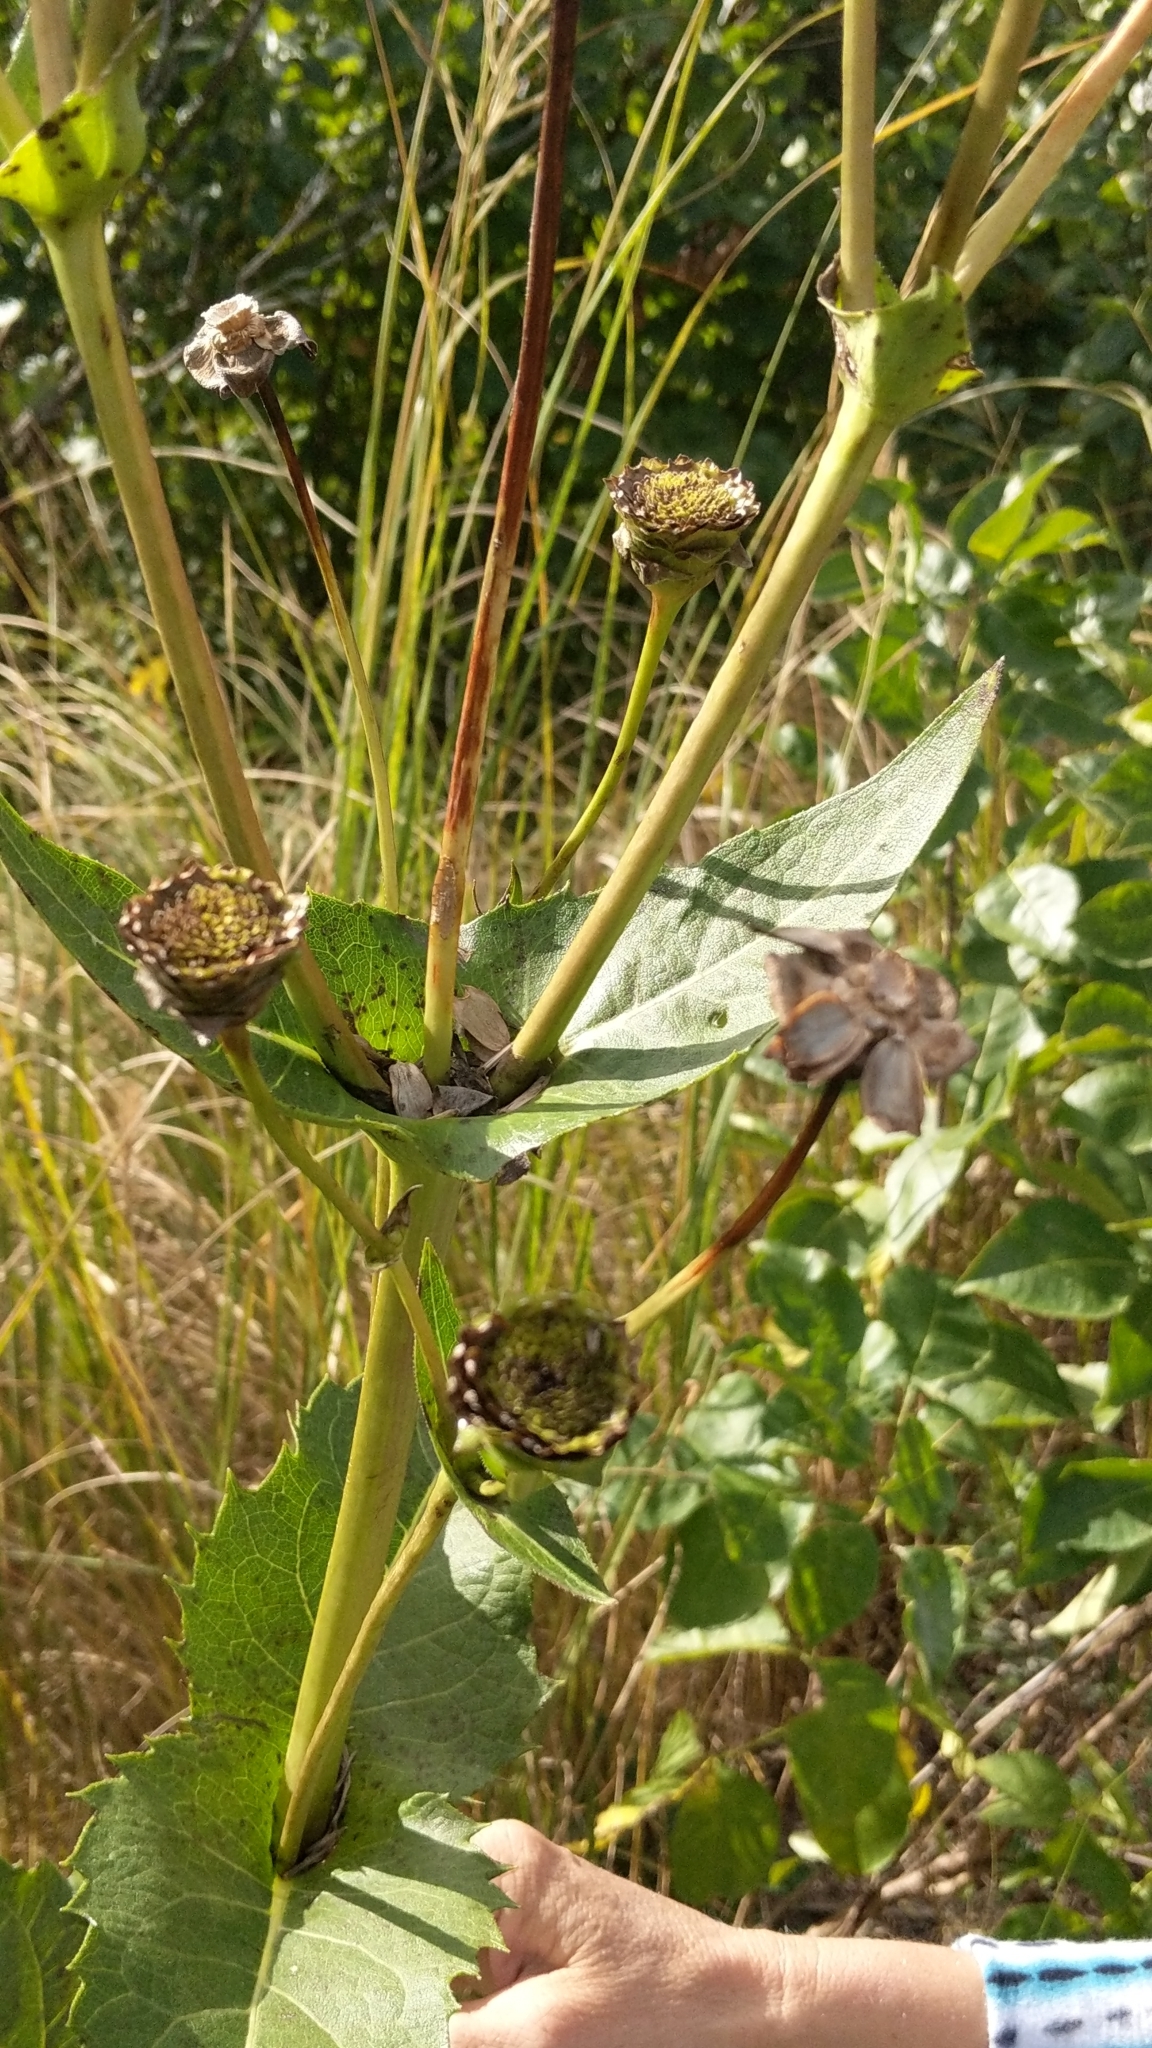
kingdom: Plantae
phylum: Tracheophyta
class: Magnoliopsida
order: Asterales
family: Asteraceae
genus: Silphium
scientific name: Silphium perfoliatum
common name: Cup-plant
